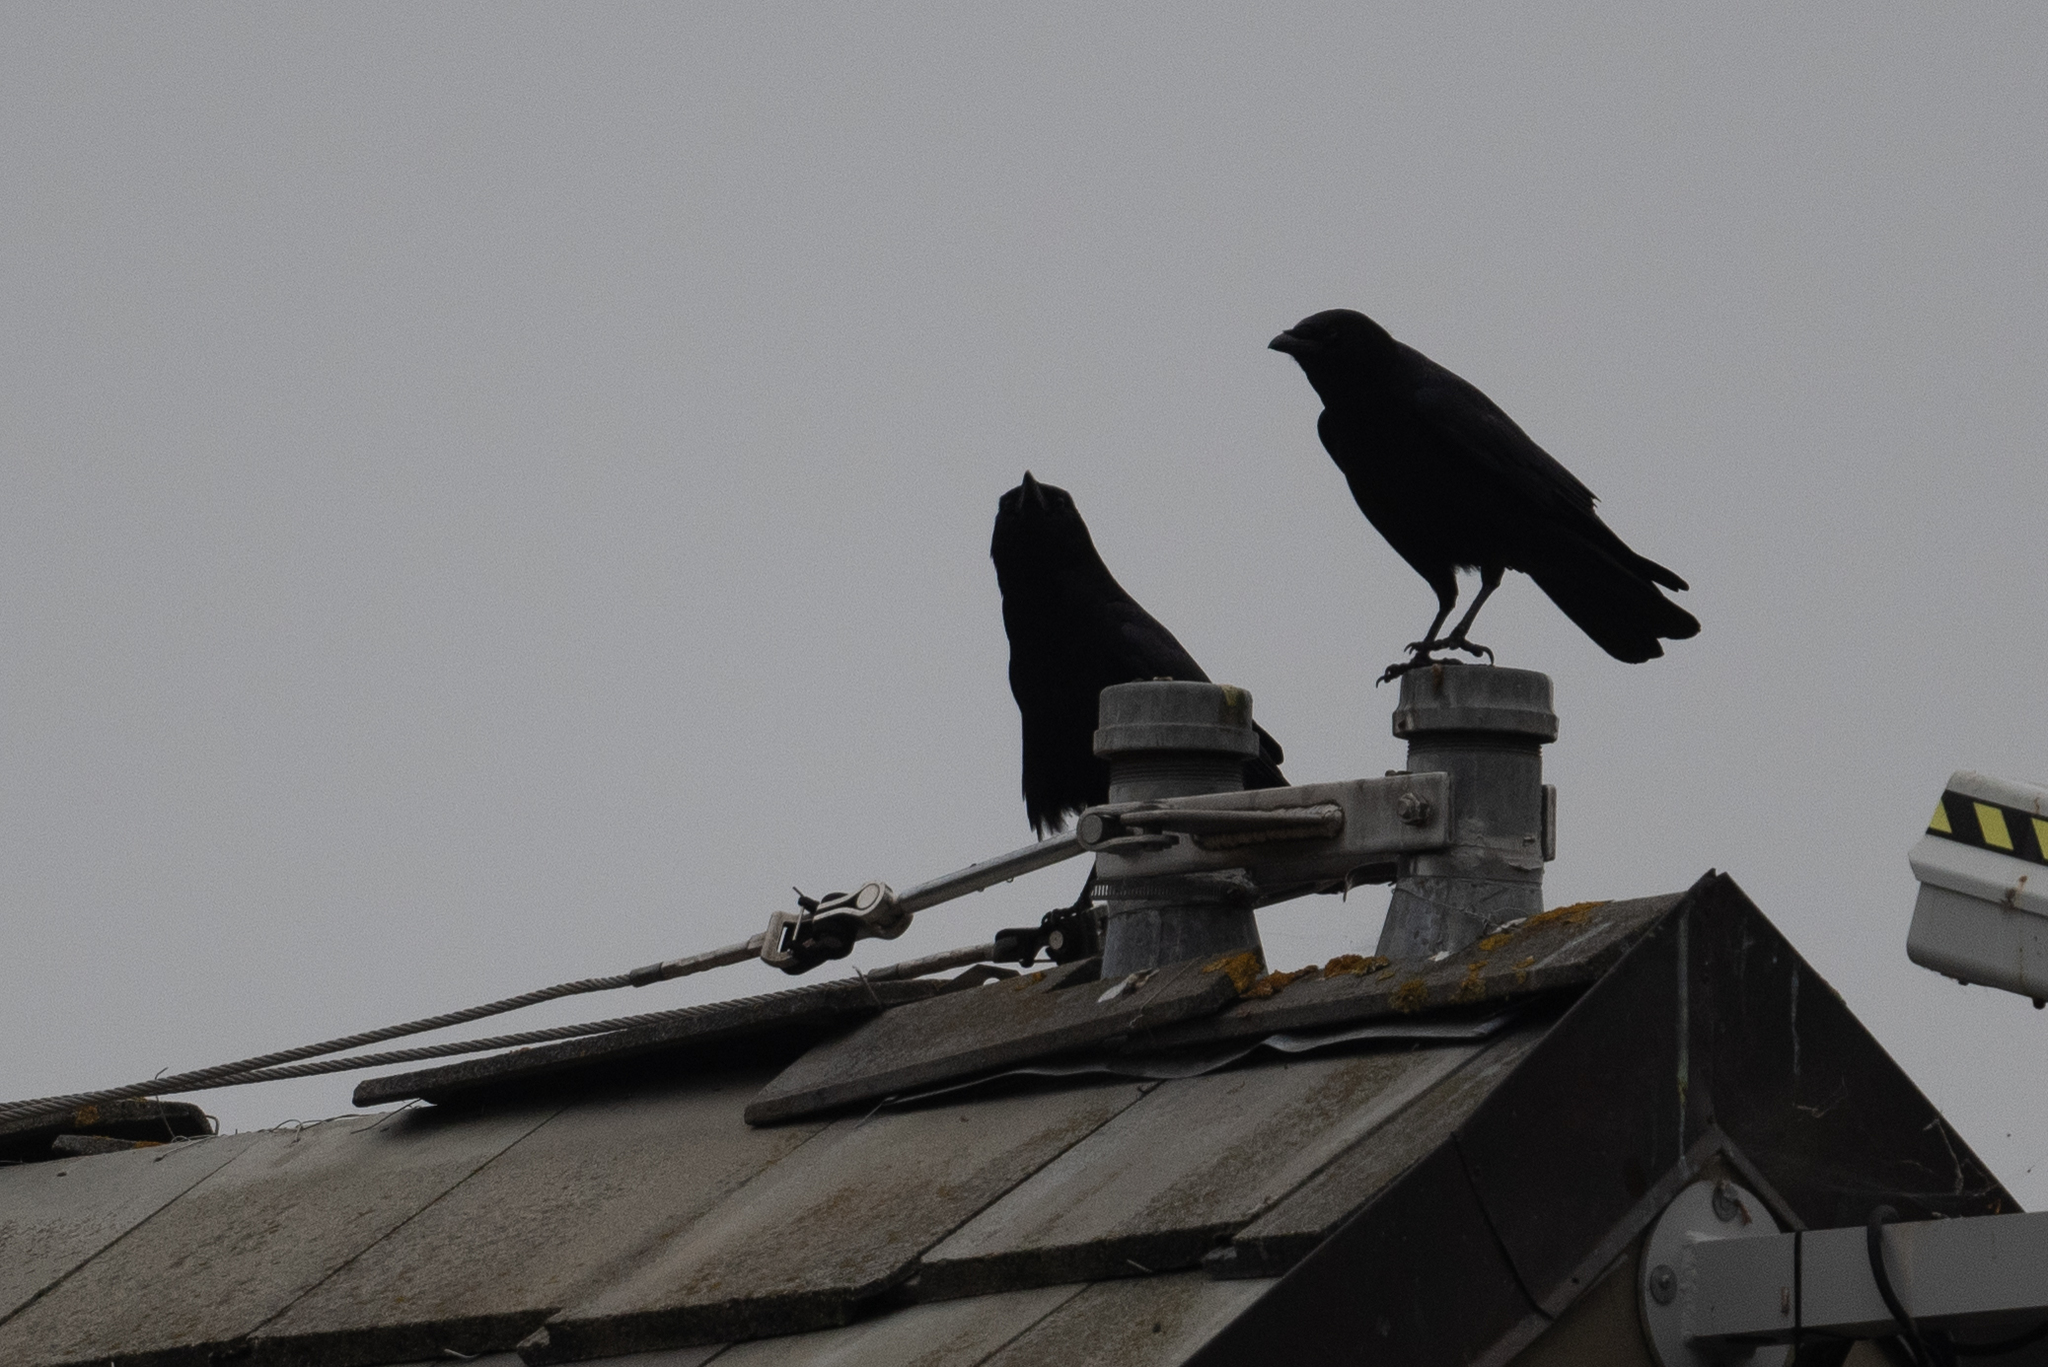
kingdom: Animalia
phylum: Chordata
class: Aves
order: Passeriformes
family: Corvidae
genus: Corvus
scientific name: Corvus brachyrhynchos
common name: American crow
